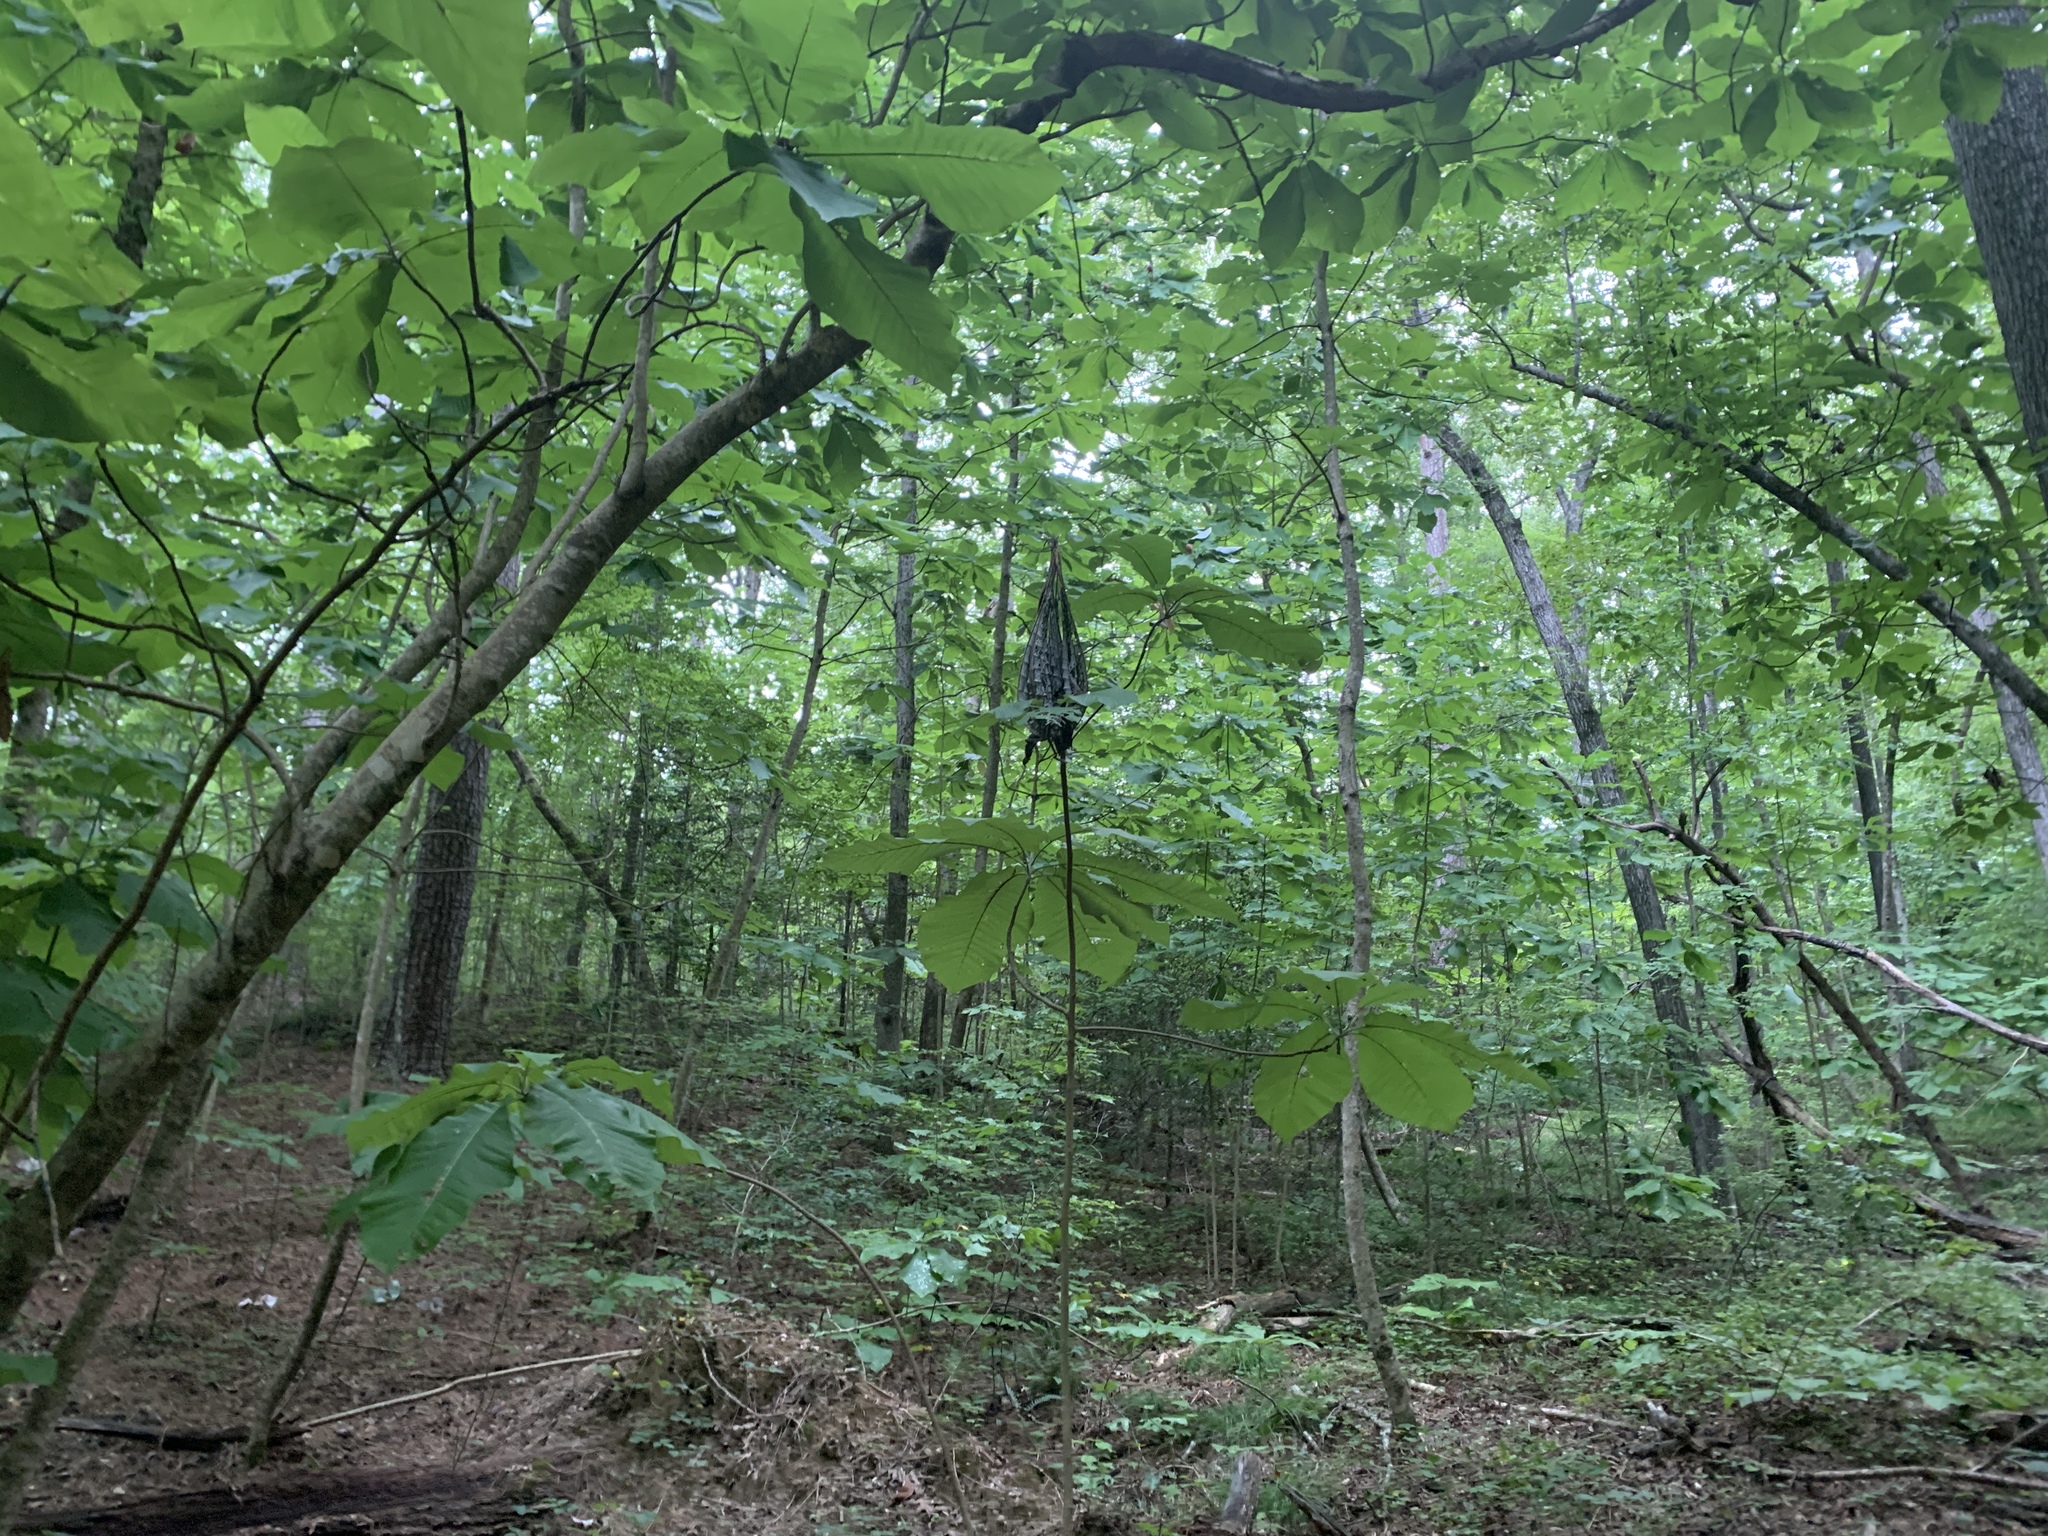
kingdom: Plantae
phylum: Tracheophyta
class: Magnoliopsida
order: Magnoliales
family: Magnoliaceae
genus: Magnolia
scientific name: Magnolia macrophylla
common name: Big-leaf magnolia
